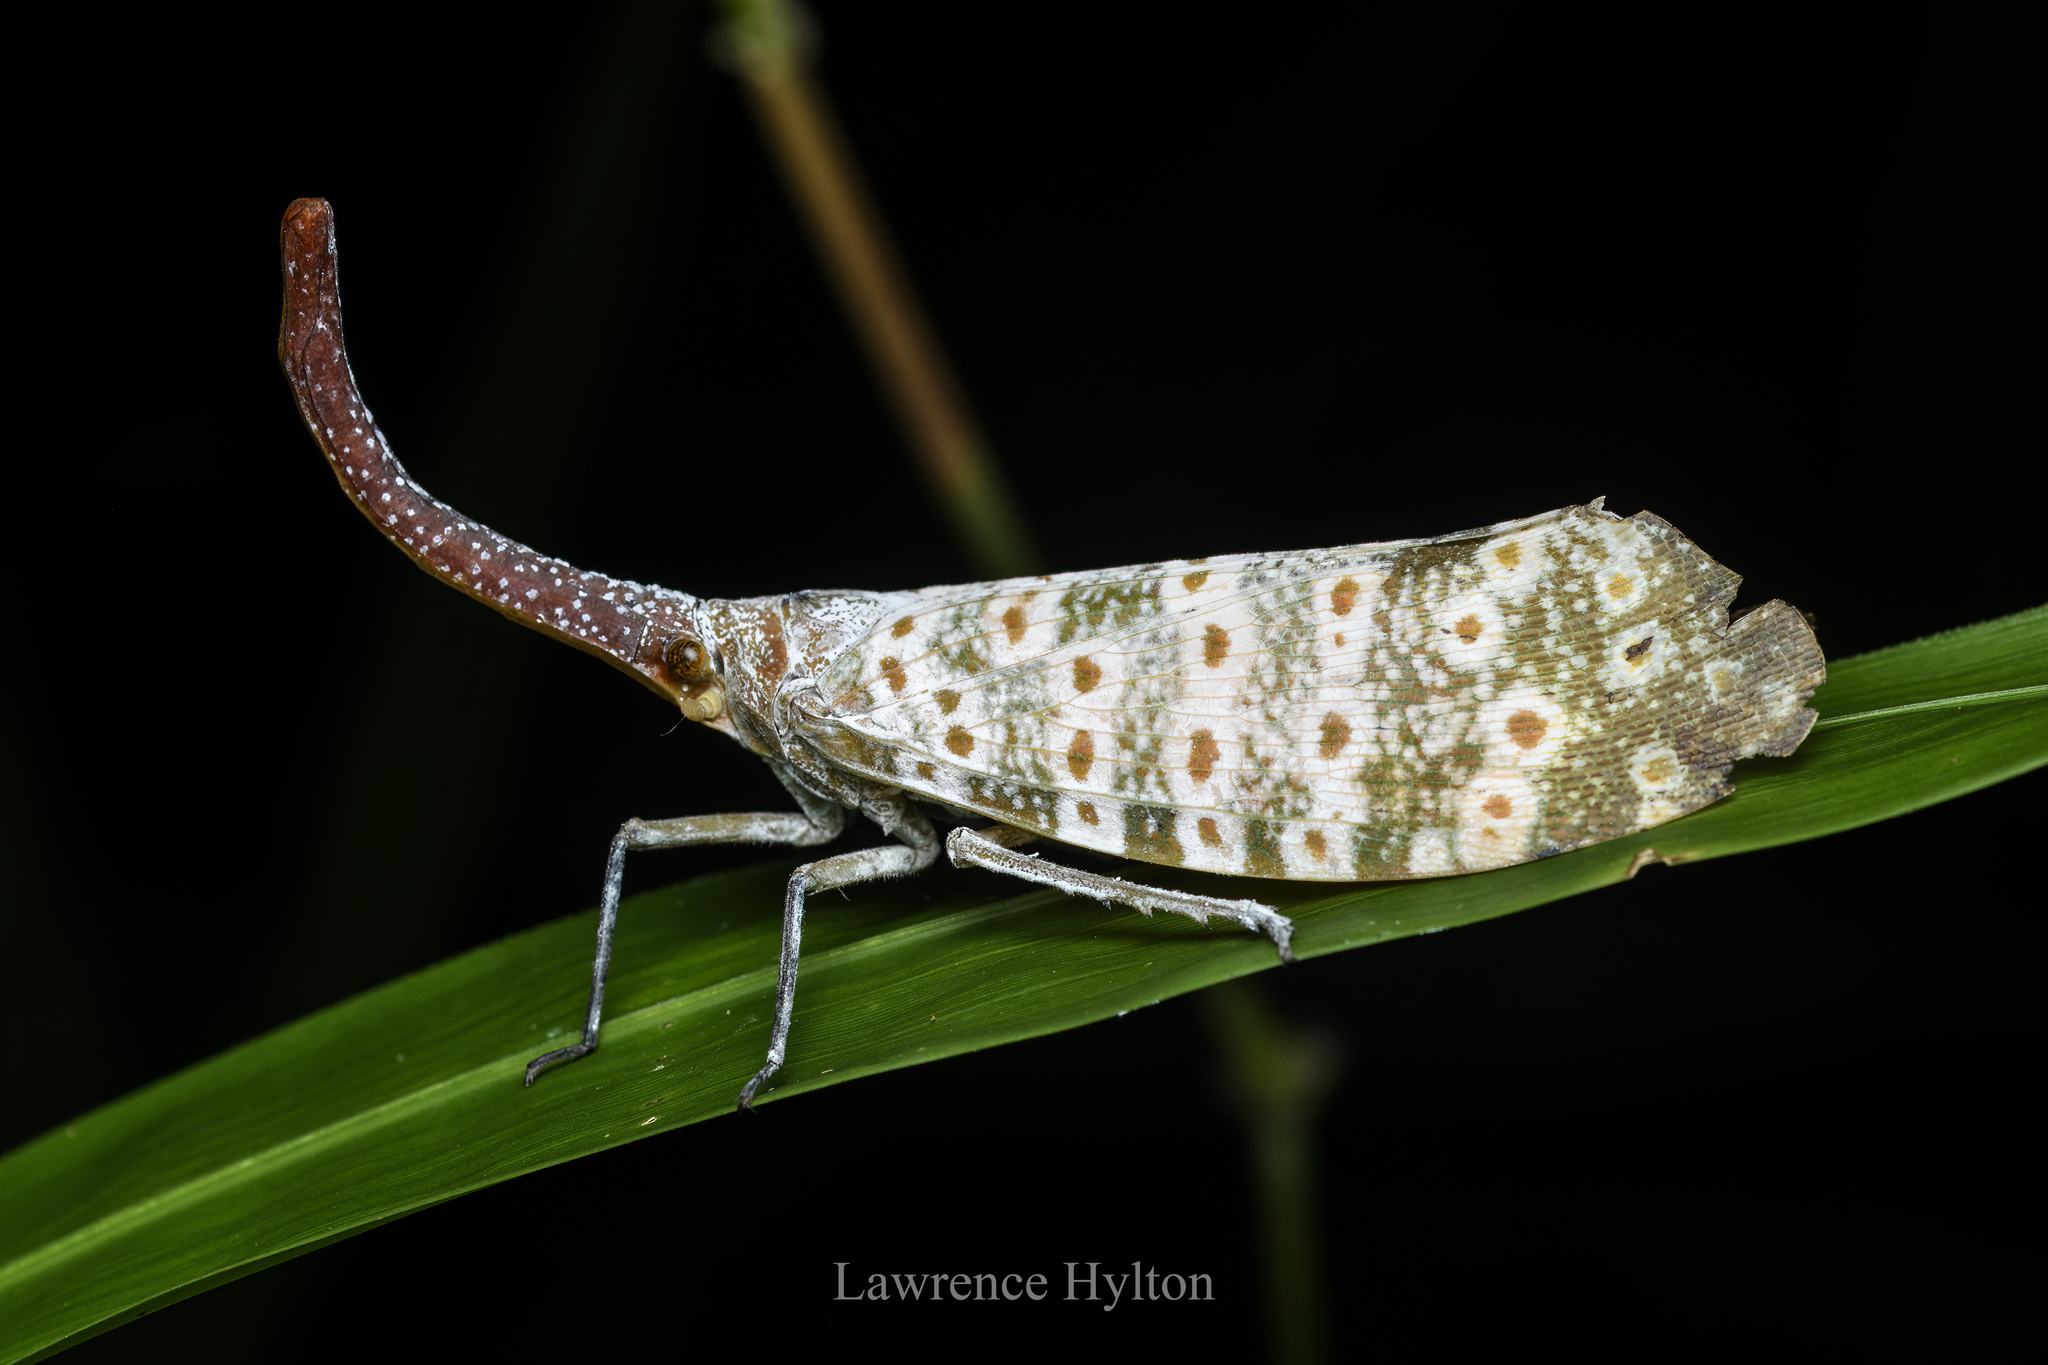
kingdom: Animalia
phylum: Arthropoda
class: Insecta
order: Hemiptera
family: Fulgoridae
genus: Pyrops
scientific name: Pyrops oculatus
